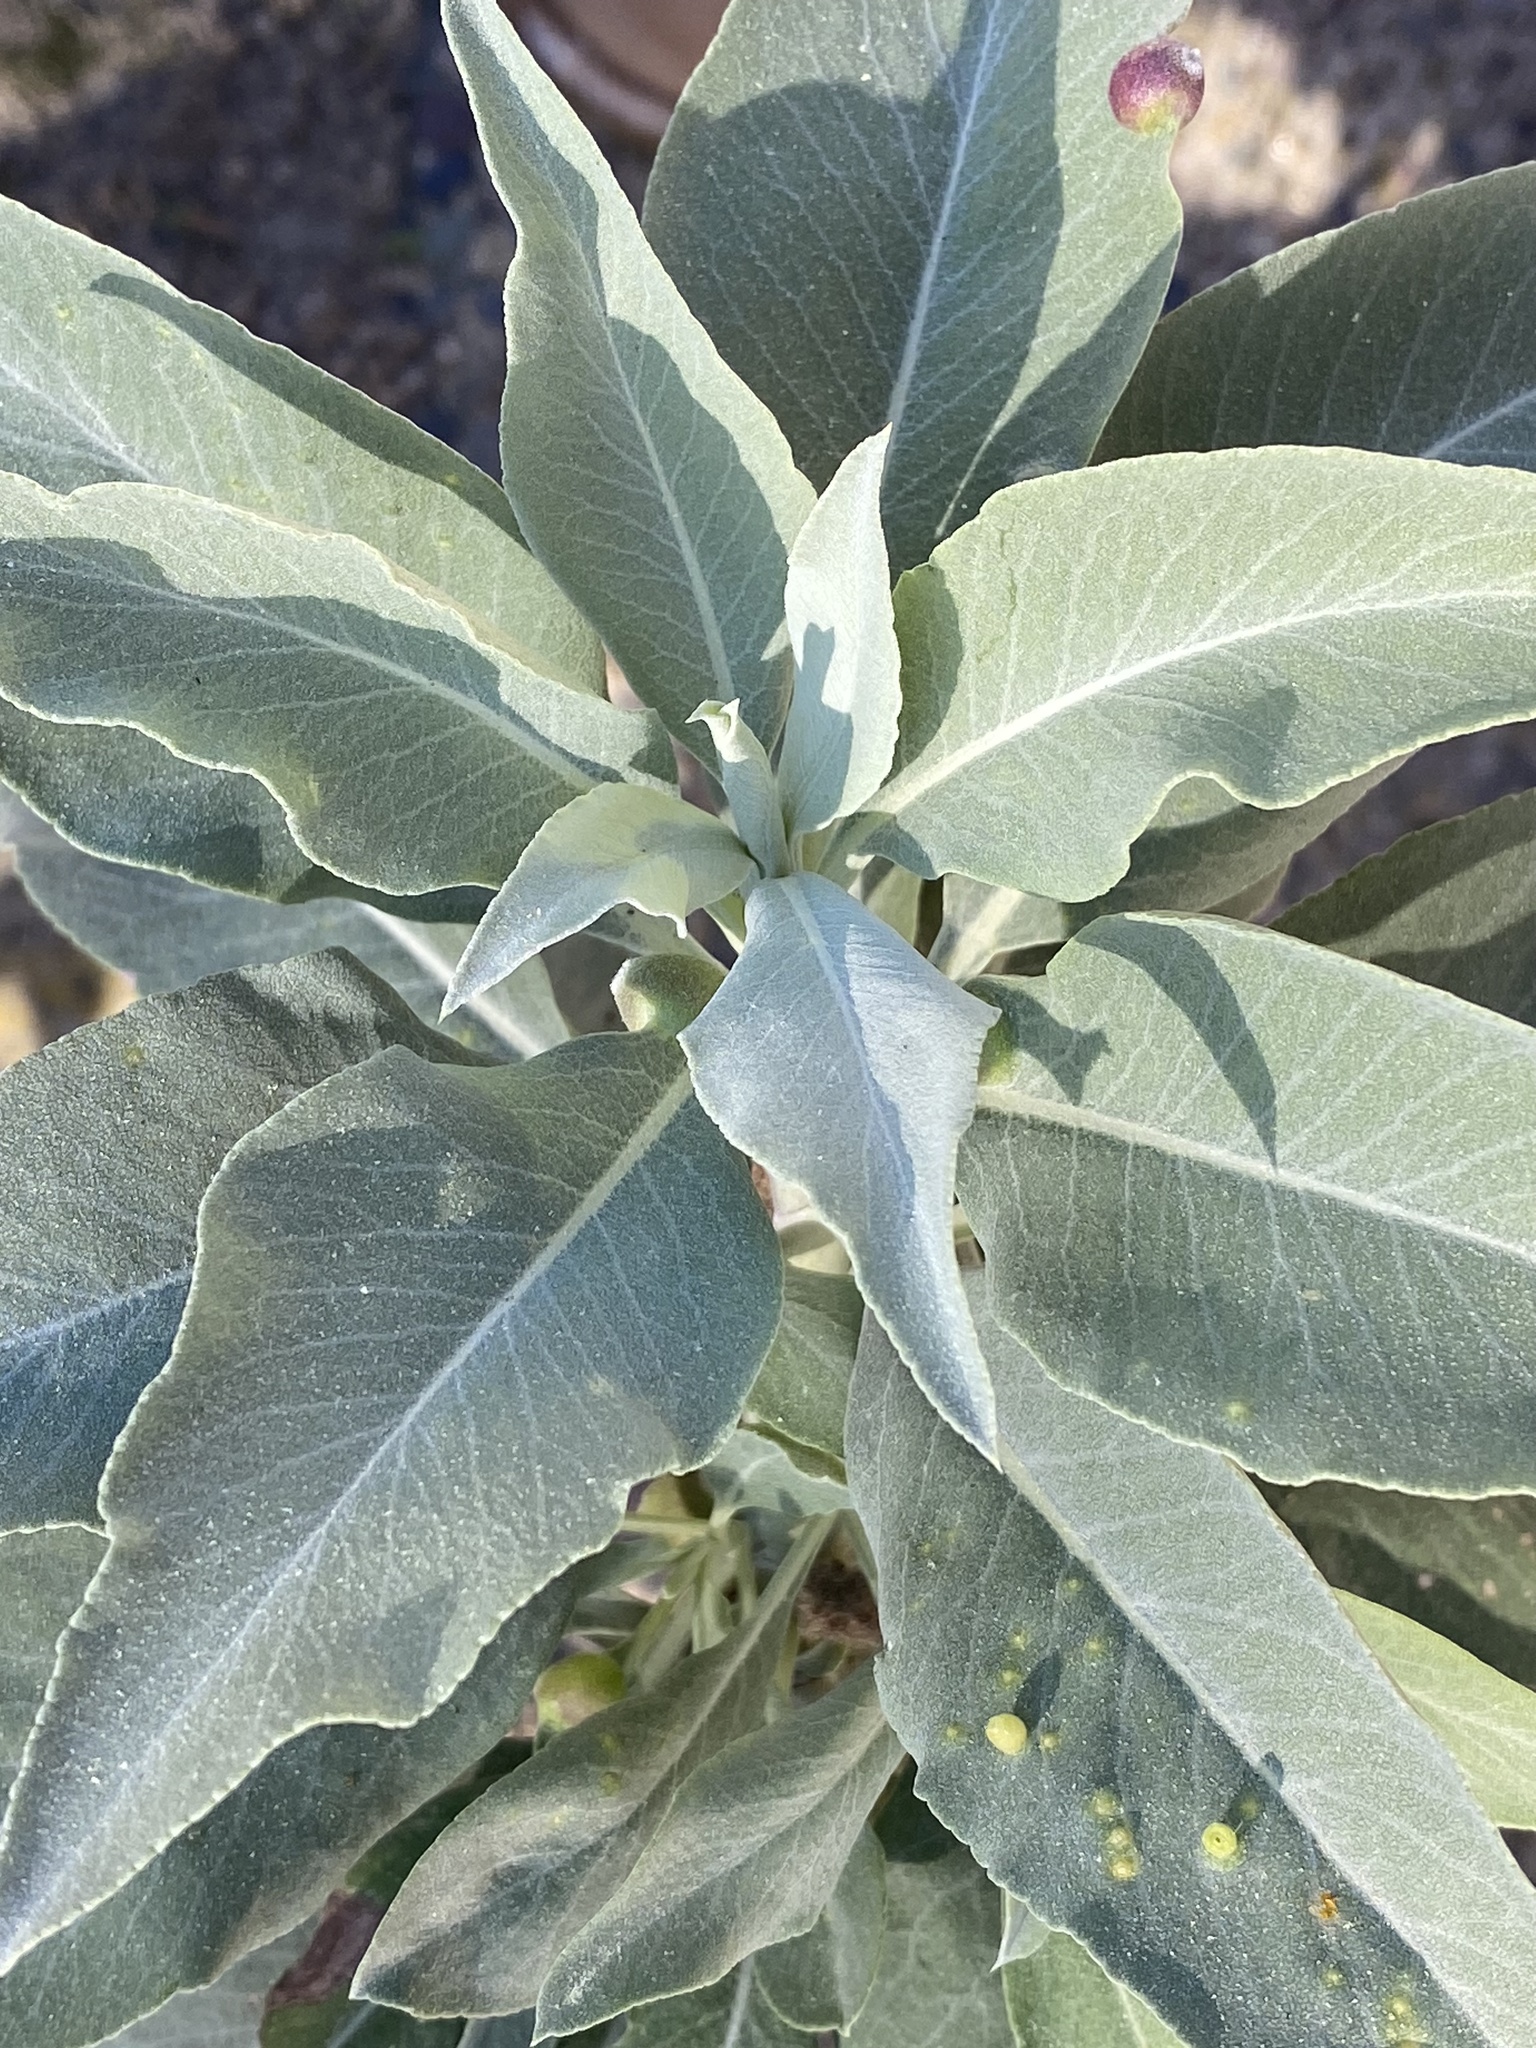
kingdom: Plantae
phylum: Tracheophyta
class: Magnoliopsida
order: Lamiales
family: Lamiaceae
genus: Salvia
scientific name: Salvia apiana
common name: White sage
